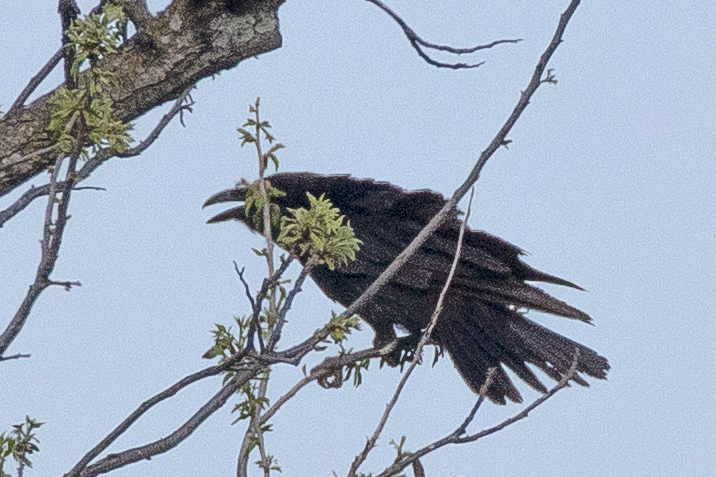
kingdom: Animalia
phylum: Chordata
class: Aves
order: Passeriformes
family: Corvidae
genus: Corvus
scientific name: Corvus corax
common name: Common raven
